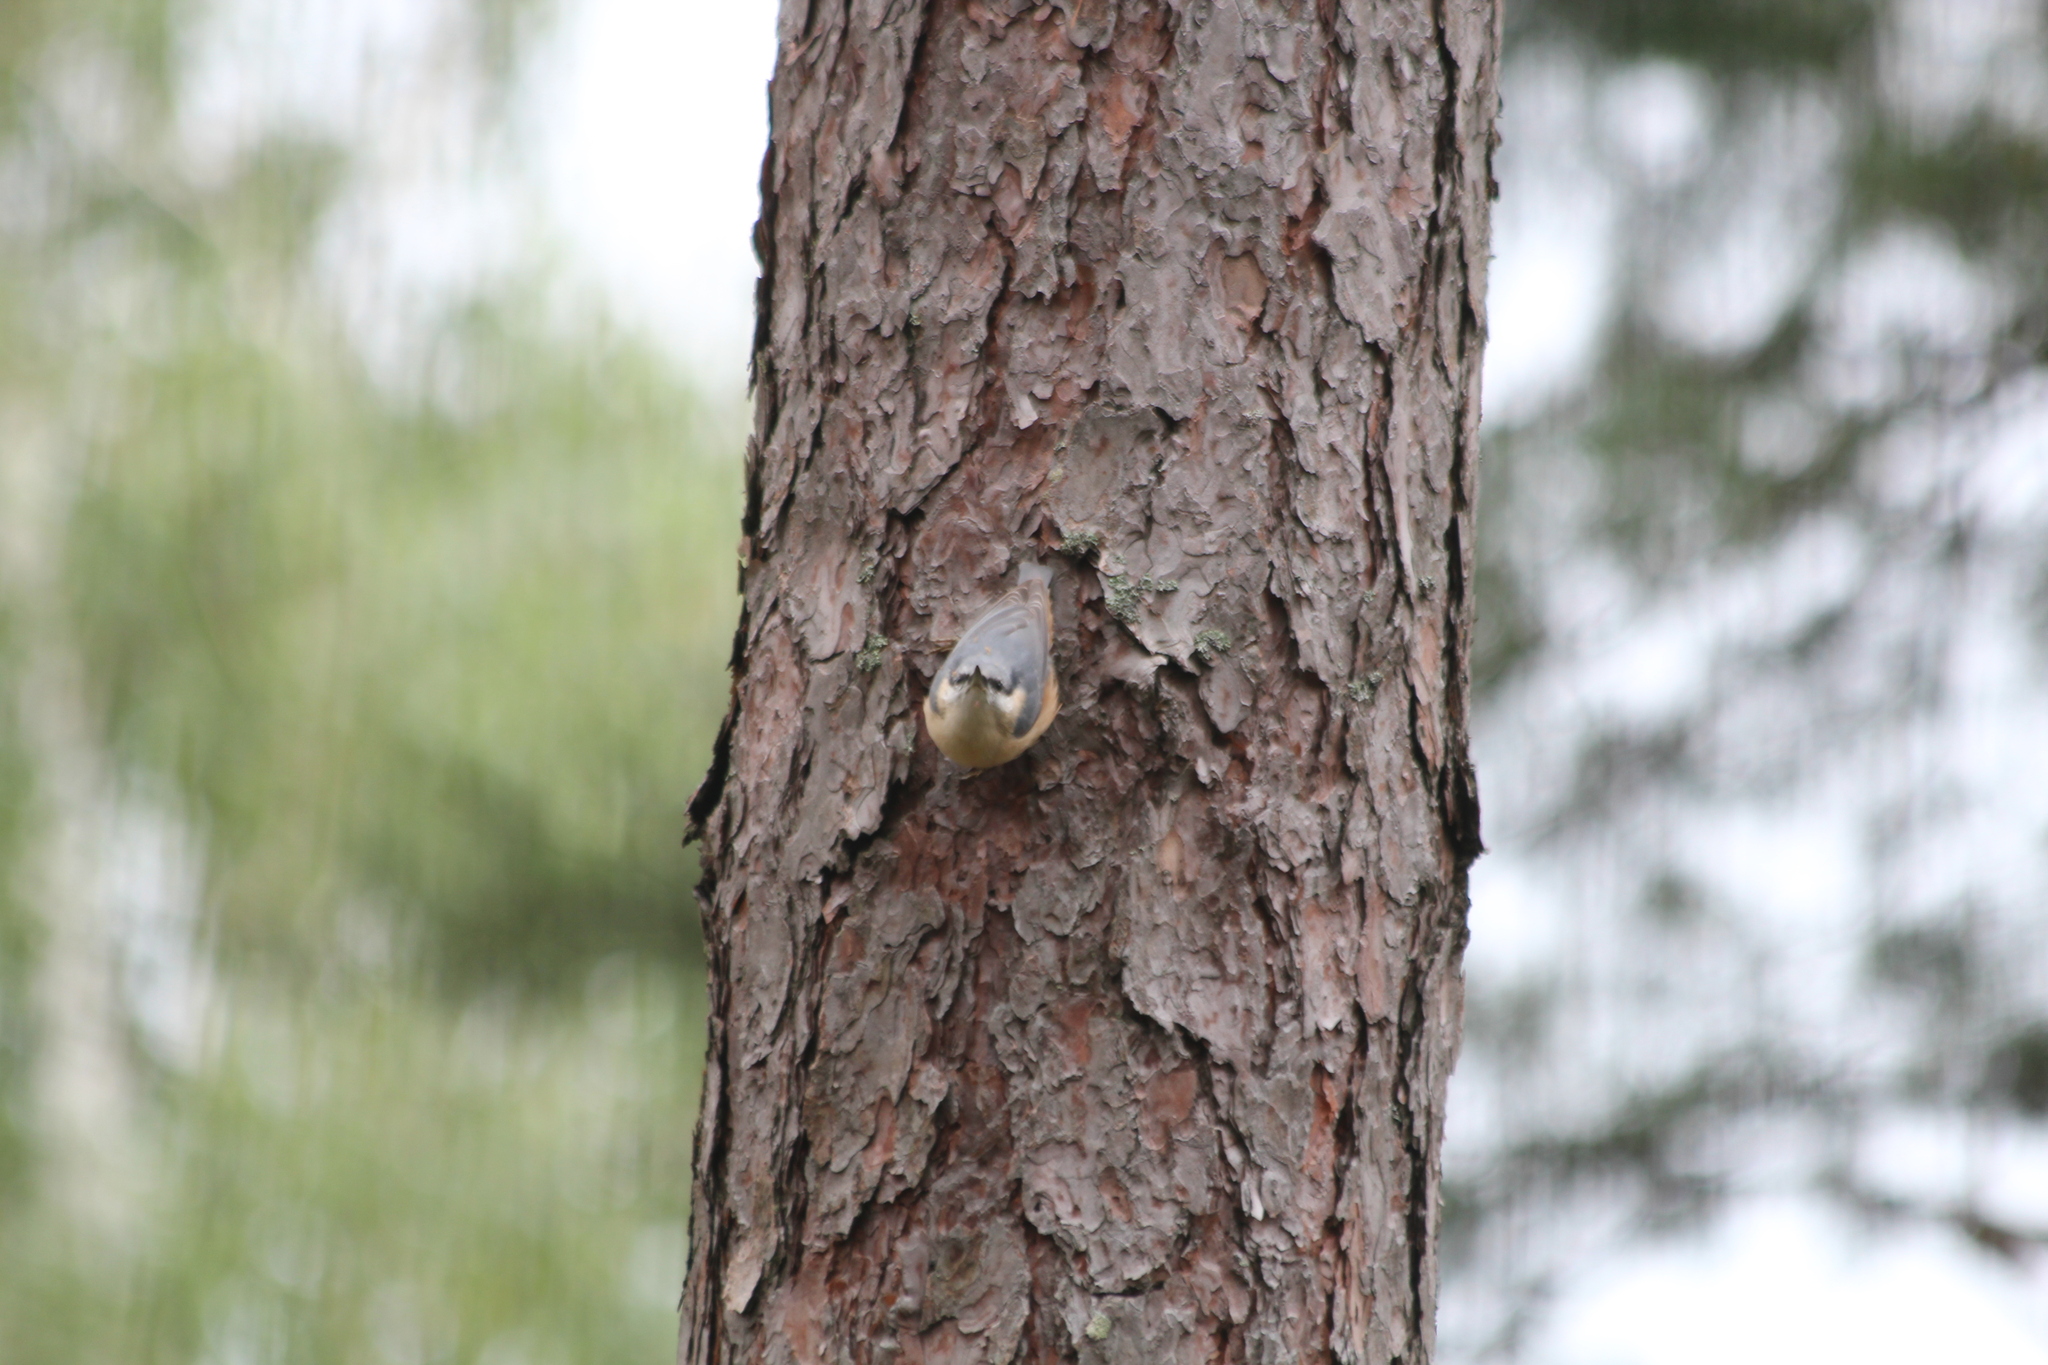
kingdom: Animalia
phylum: Chordata
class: Aves
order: Passeriformes
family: Sittidae
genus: Sitta
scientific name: Sitta europaea
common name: Eurasian nuthatch
